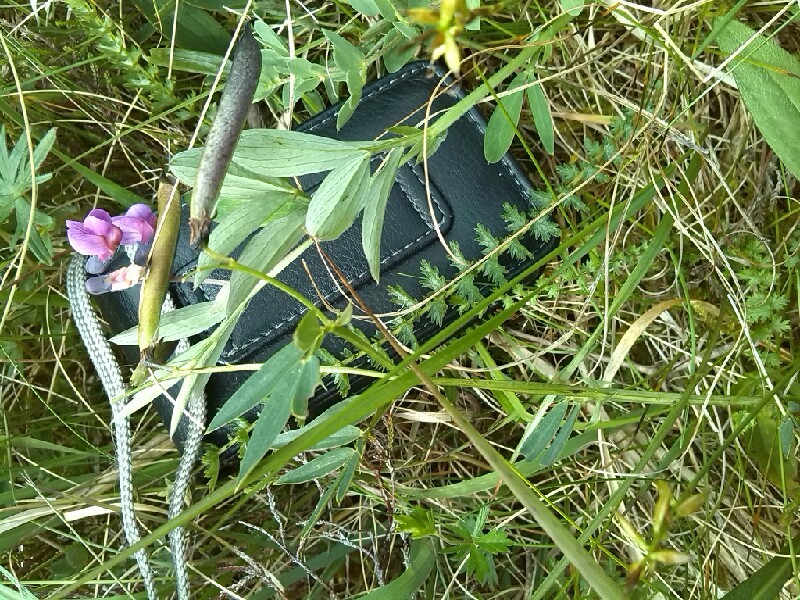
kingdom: Plantae
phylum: Tracheophyta
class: Magnoliopsida
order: Fabales
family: Fabaceae
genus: Lathyrus
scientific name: Lathyrus linifolius
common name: Bitter-vetch
